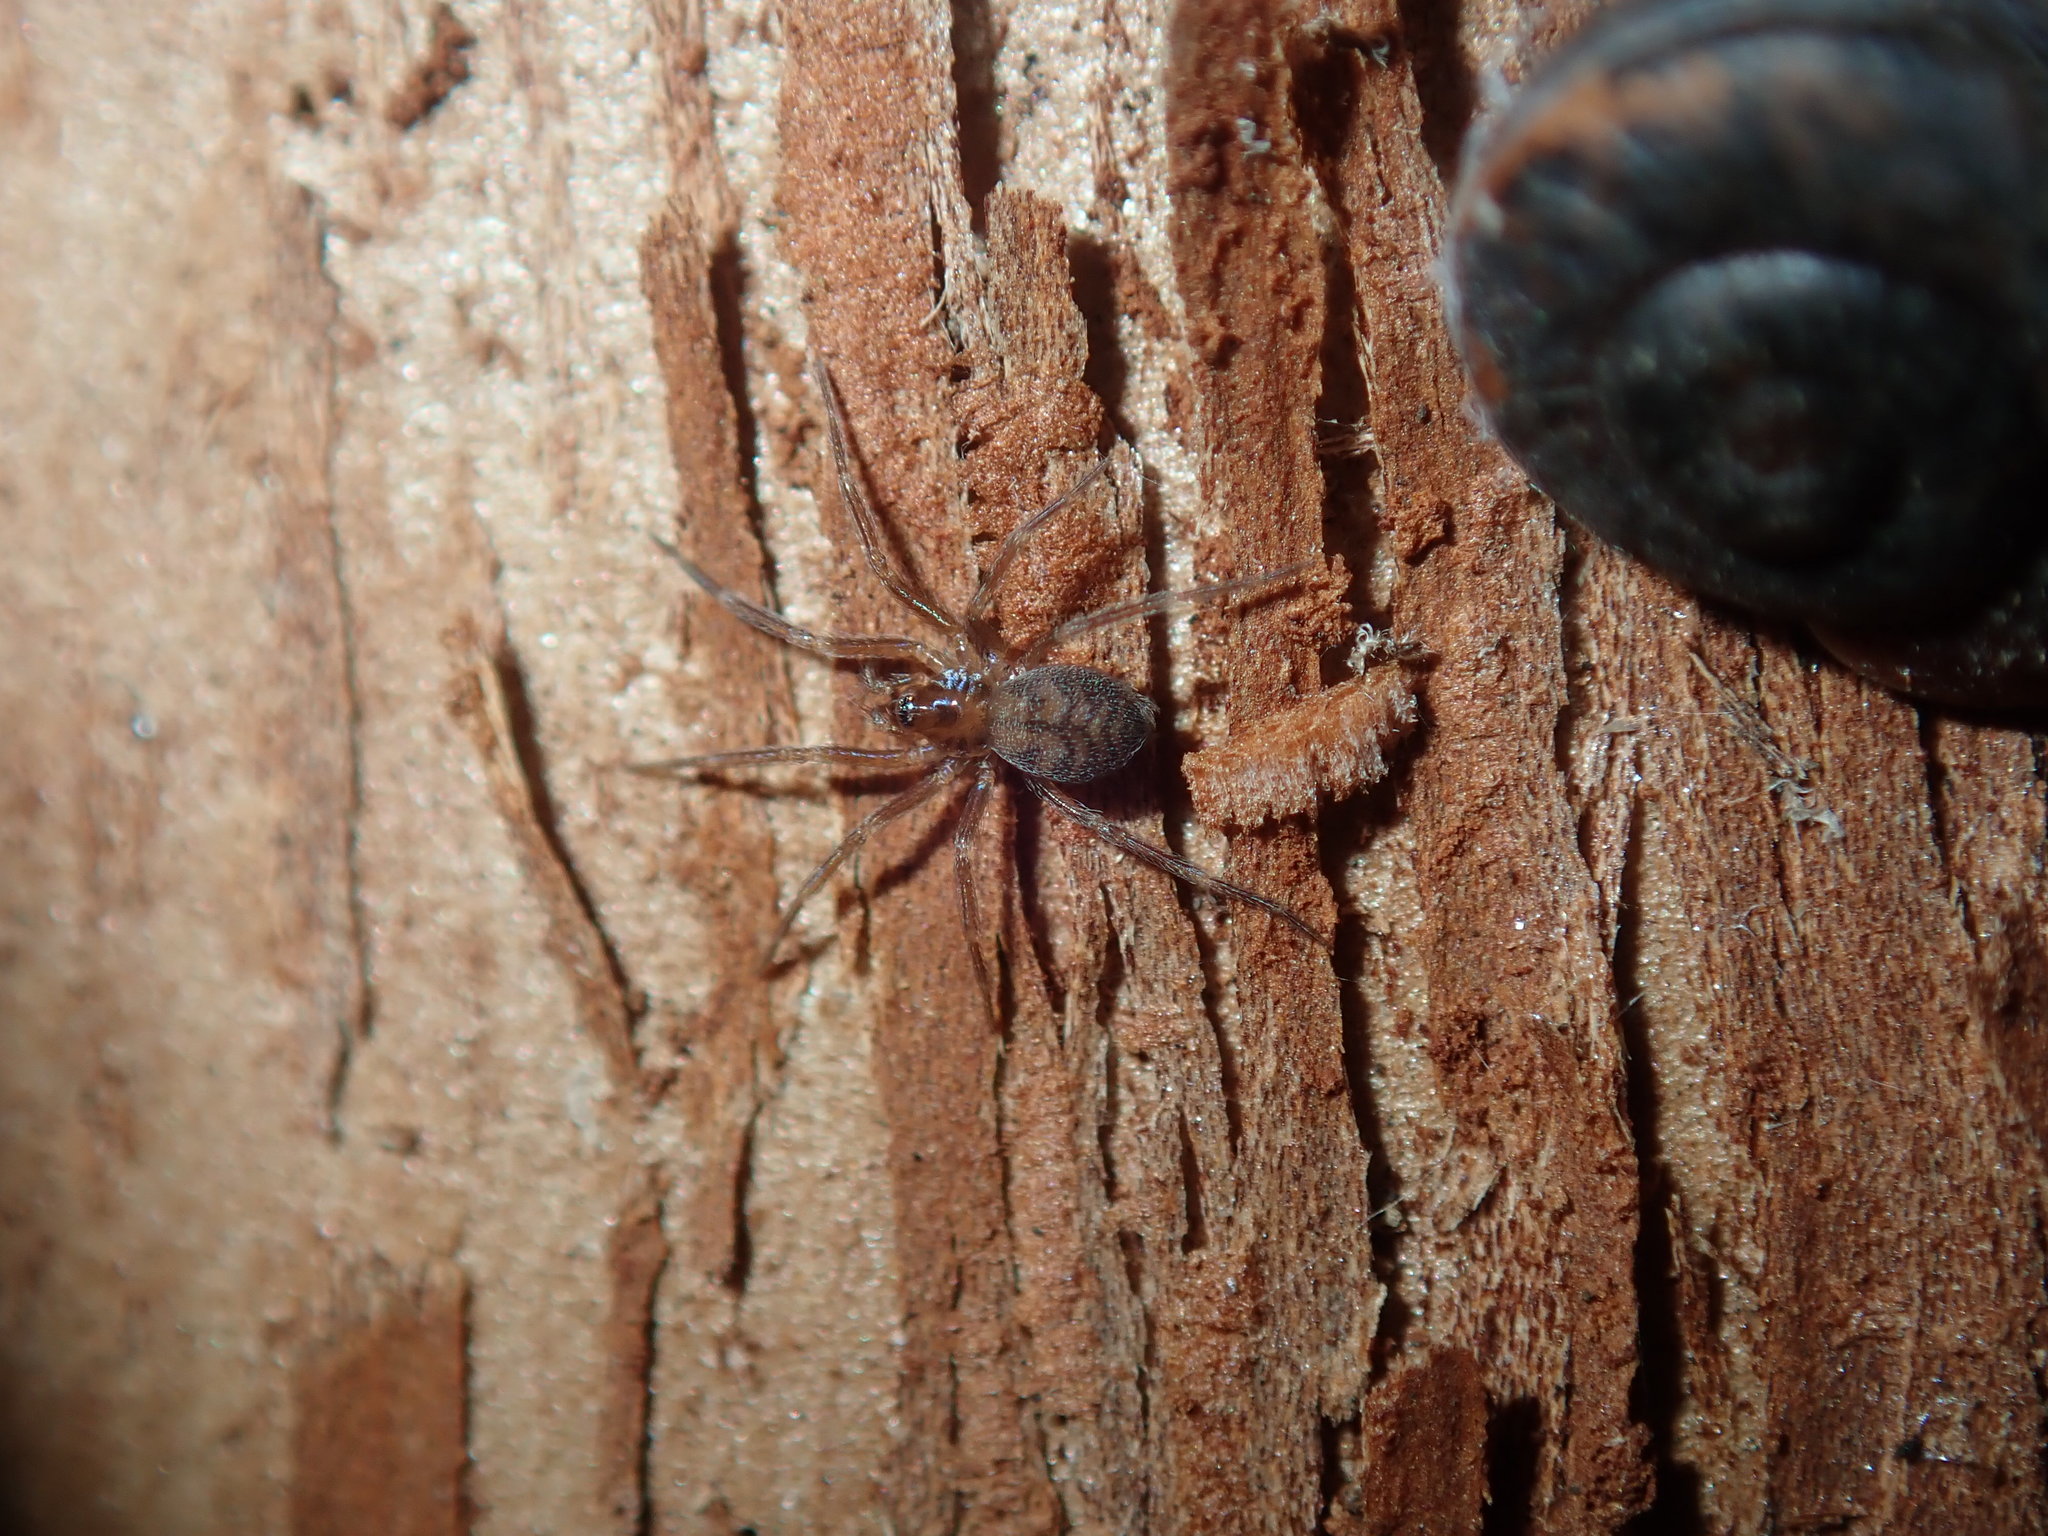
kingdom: Animalia
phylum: Arthropoda
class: Arachnida
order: Araneae
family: Hahniidae
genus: Scotospilus
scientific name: Scotospilus ampullarius
